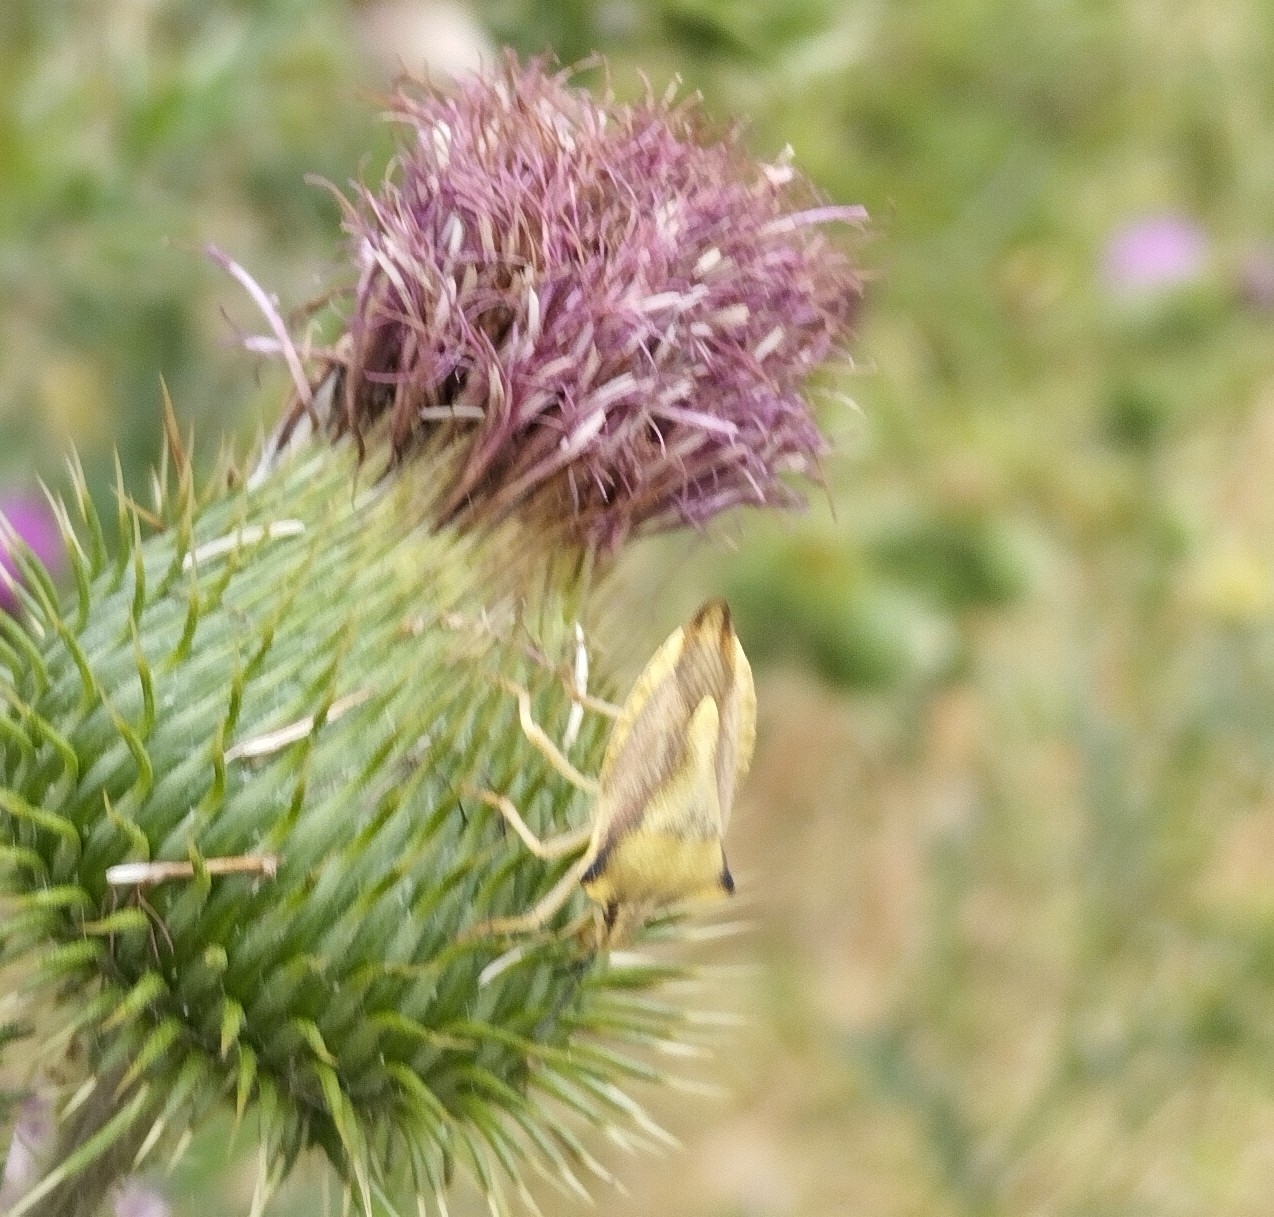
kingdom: Animalia
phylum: Arthropoda
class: Insecta
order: Hemiptera
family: Pentatomidae
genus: Carpocoris
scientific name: Carpocoris fuscispinus
